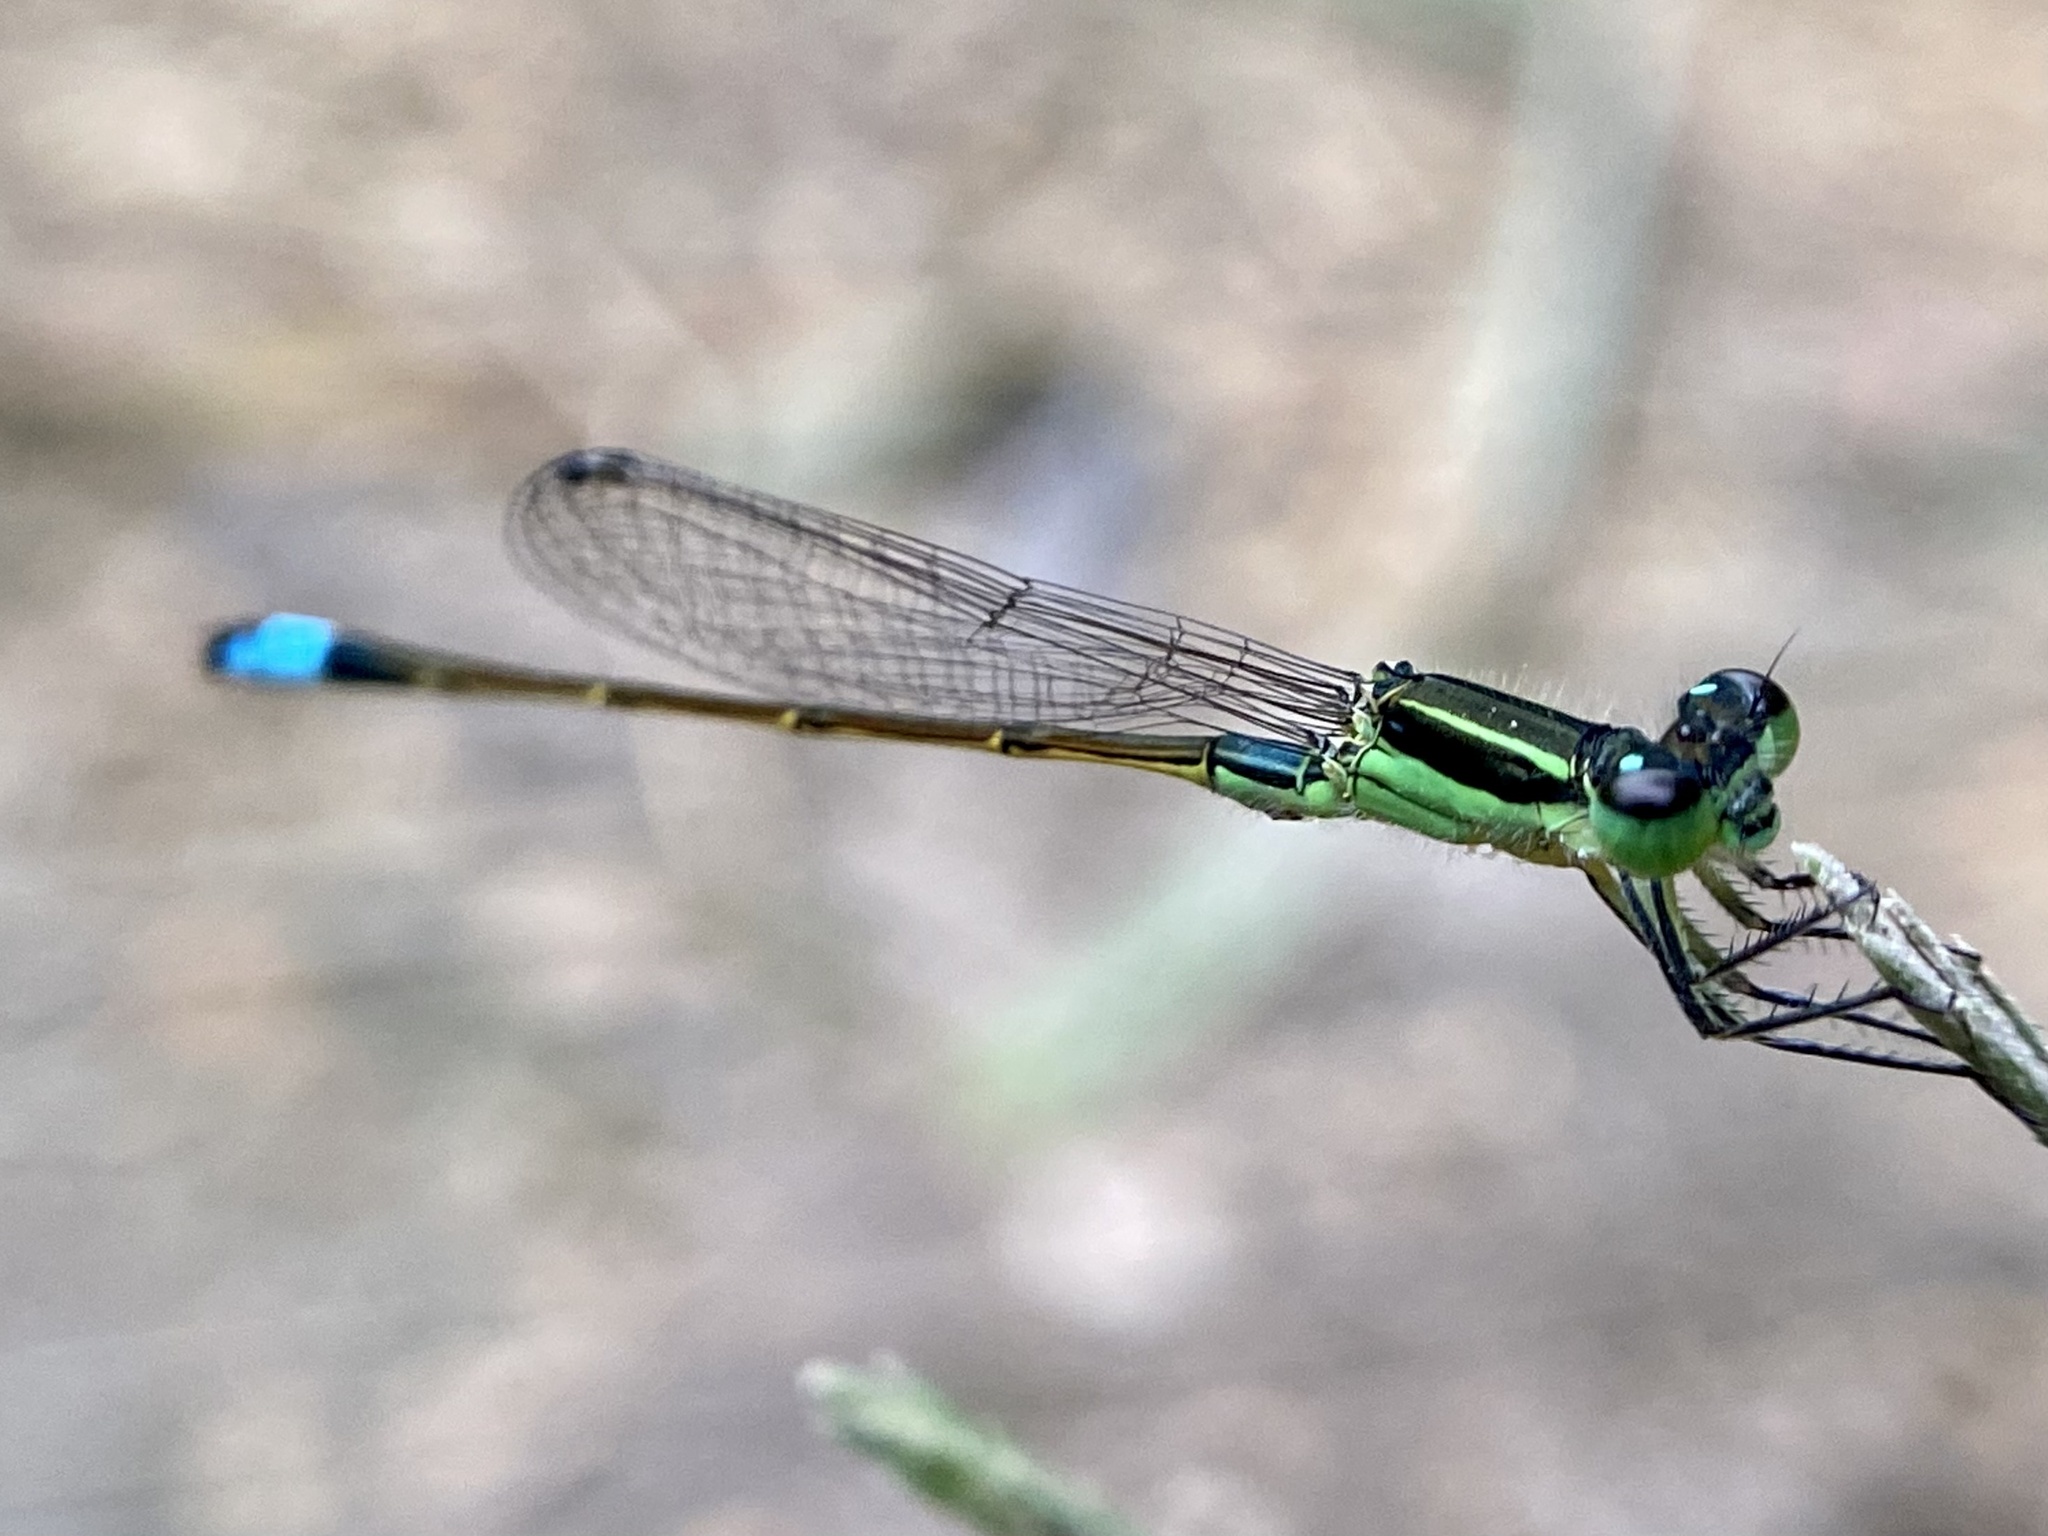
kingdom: Animalia
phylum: Arthropoda
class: Insecta
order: Odonata
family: Coenagrionidae
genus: Ischnura
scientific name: Ischnura ramburii
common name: Rambur's forktail
